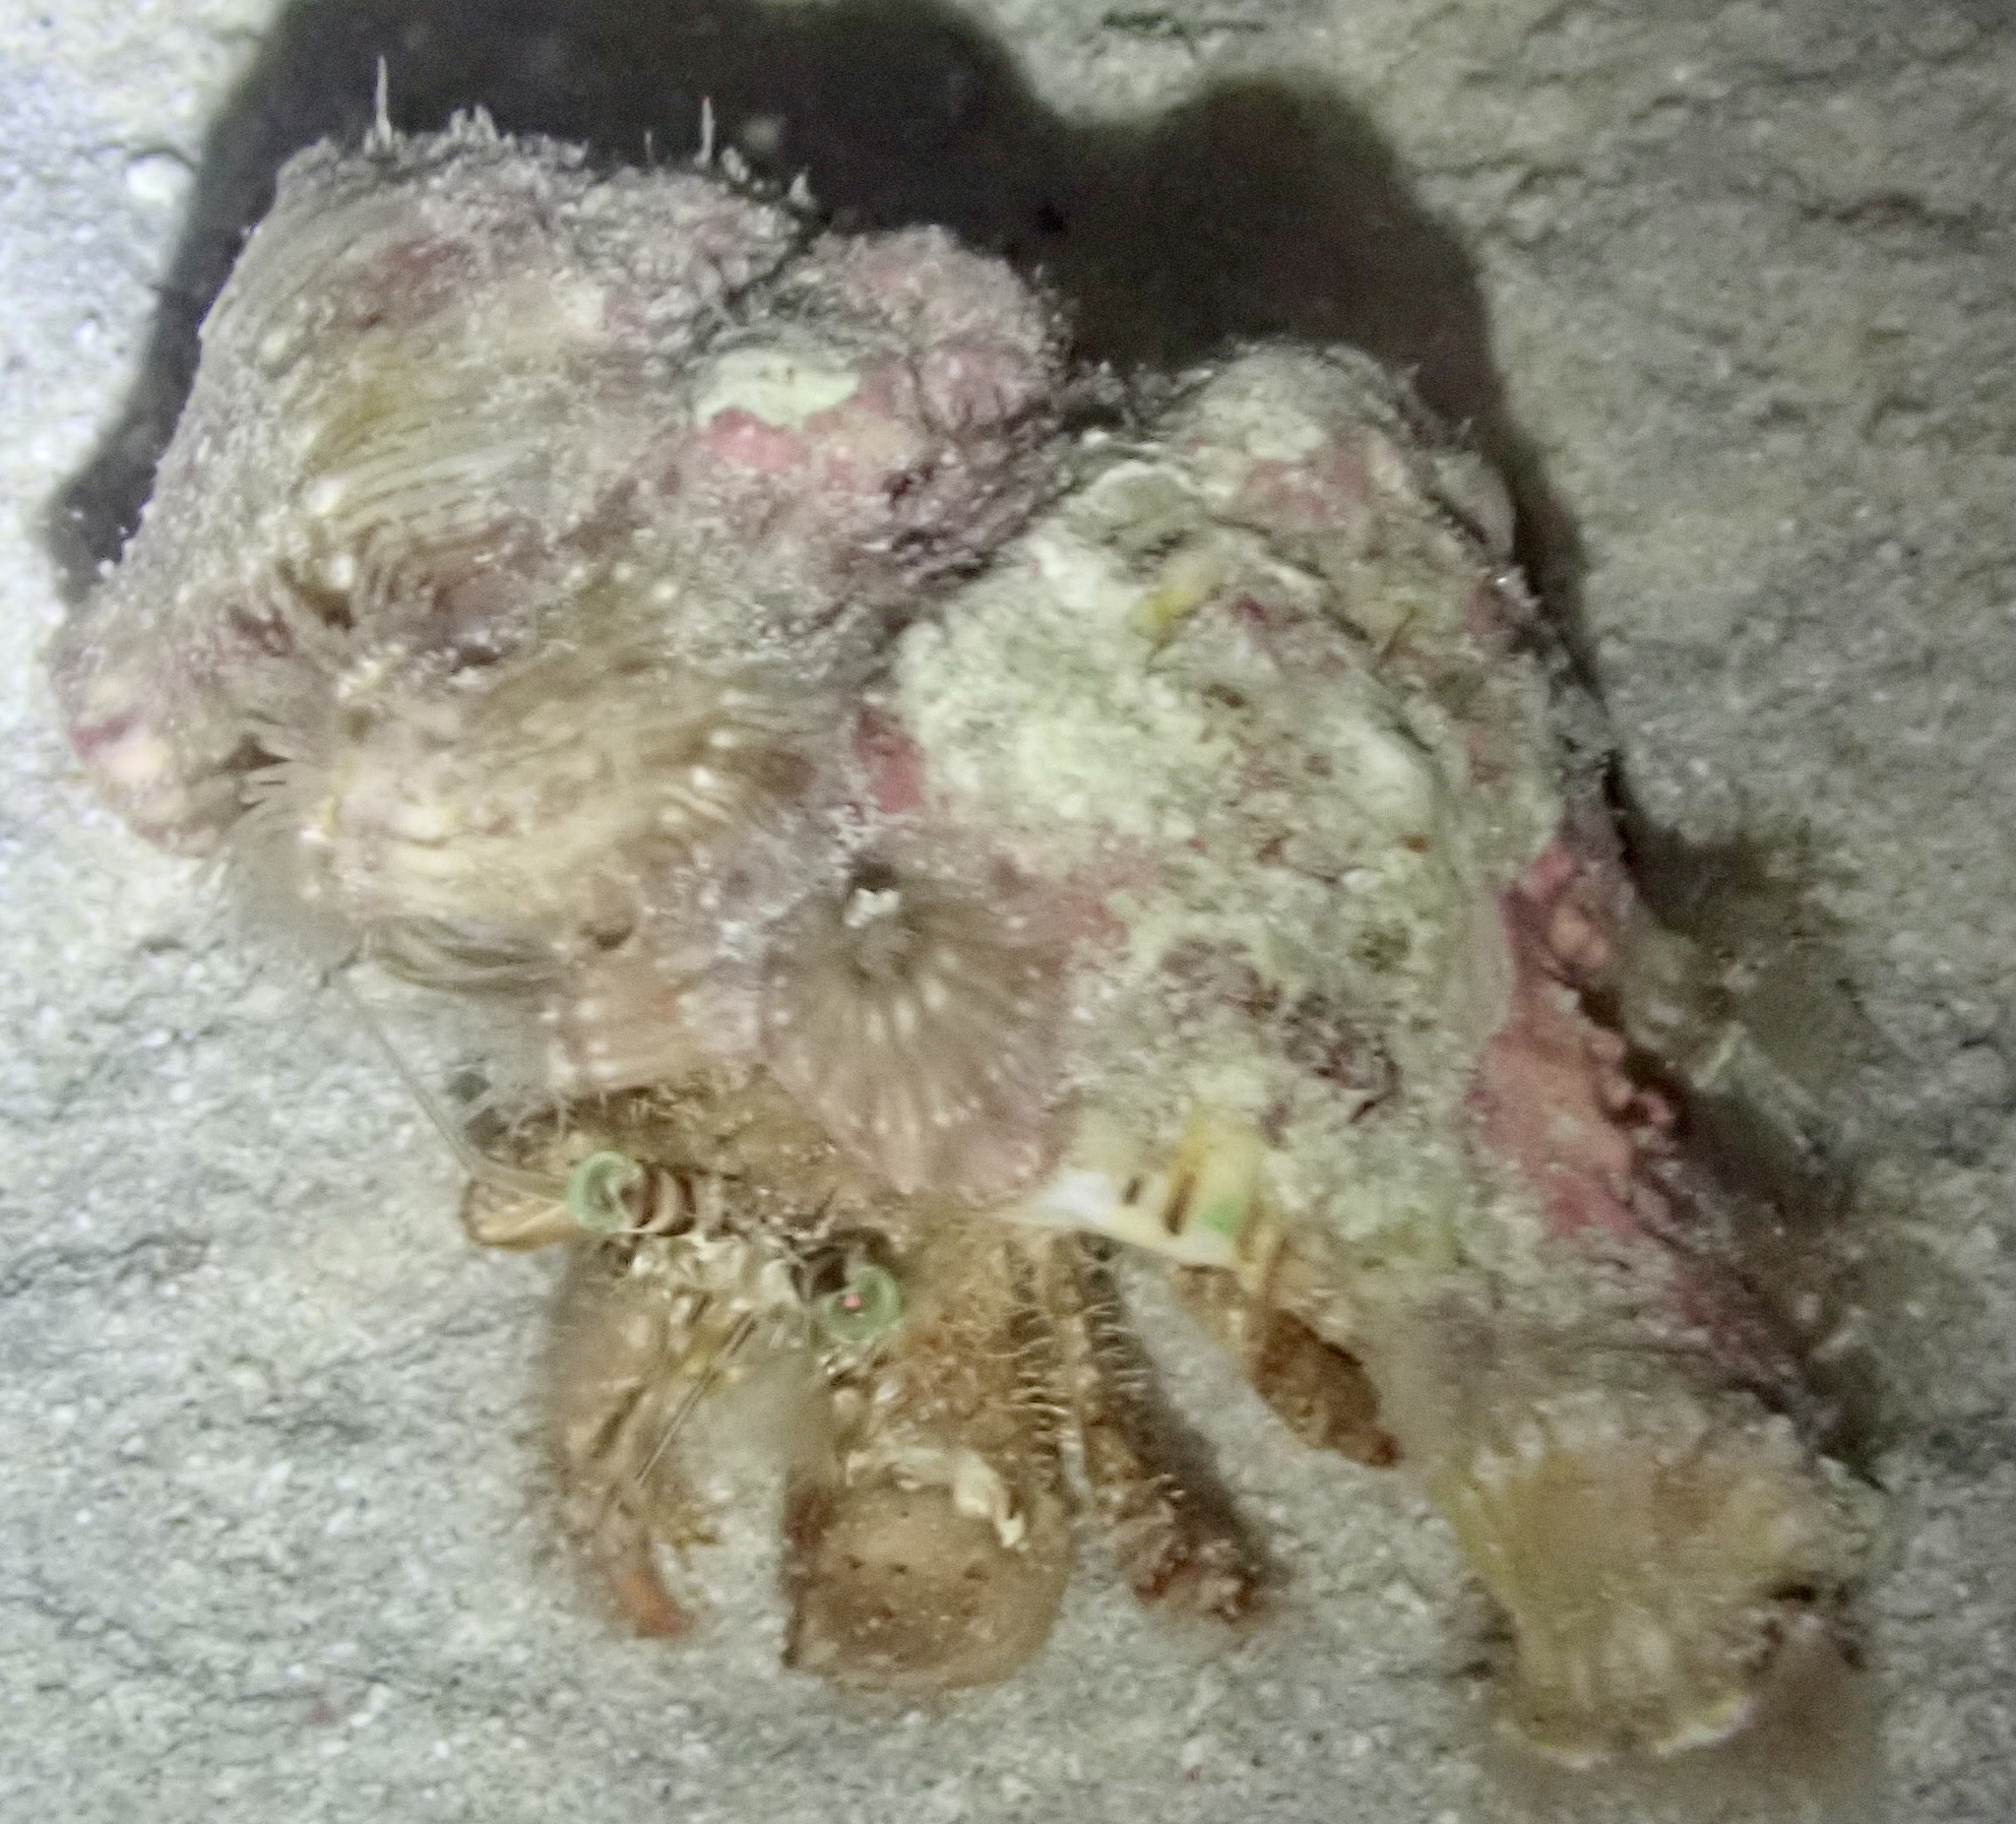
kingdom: Animalia
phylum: Arthropoda
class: Malacostraca
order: Decapoda
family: Diogenidae
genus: Dardanus
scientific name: Dardanus tinctor
